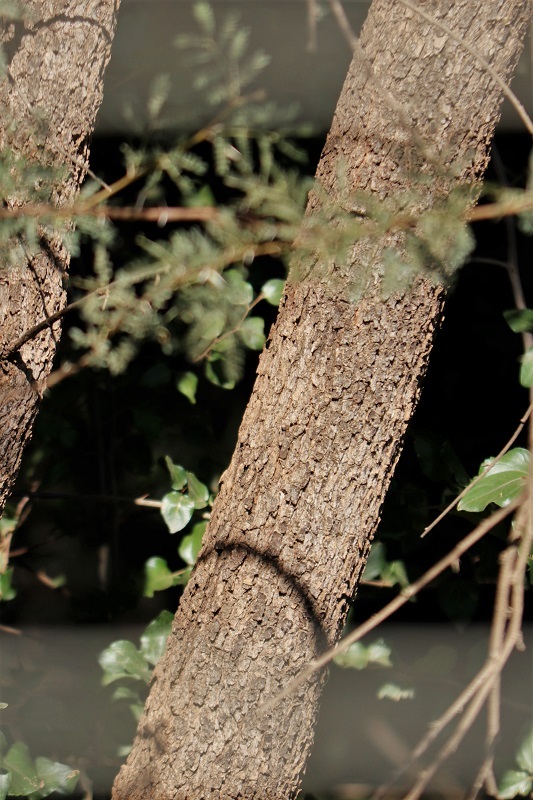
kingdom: Plantae
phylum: Tracheophyta
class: Magnoliopsida
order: Sapindales
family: Anacardiaceae
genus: Searsia
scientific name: Searsia lancea
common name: Cashew
